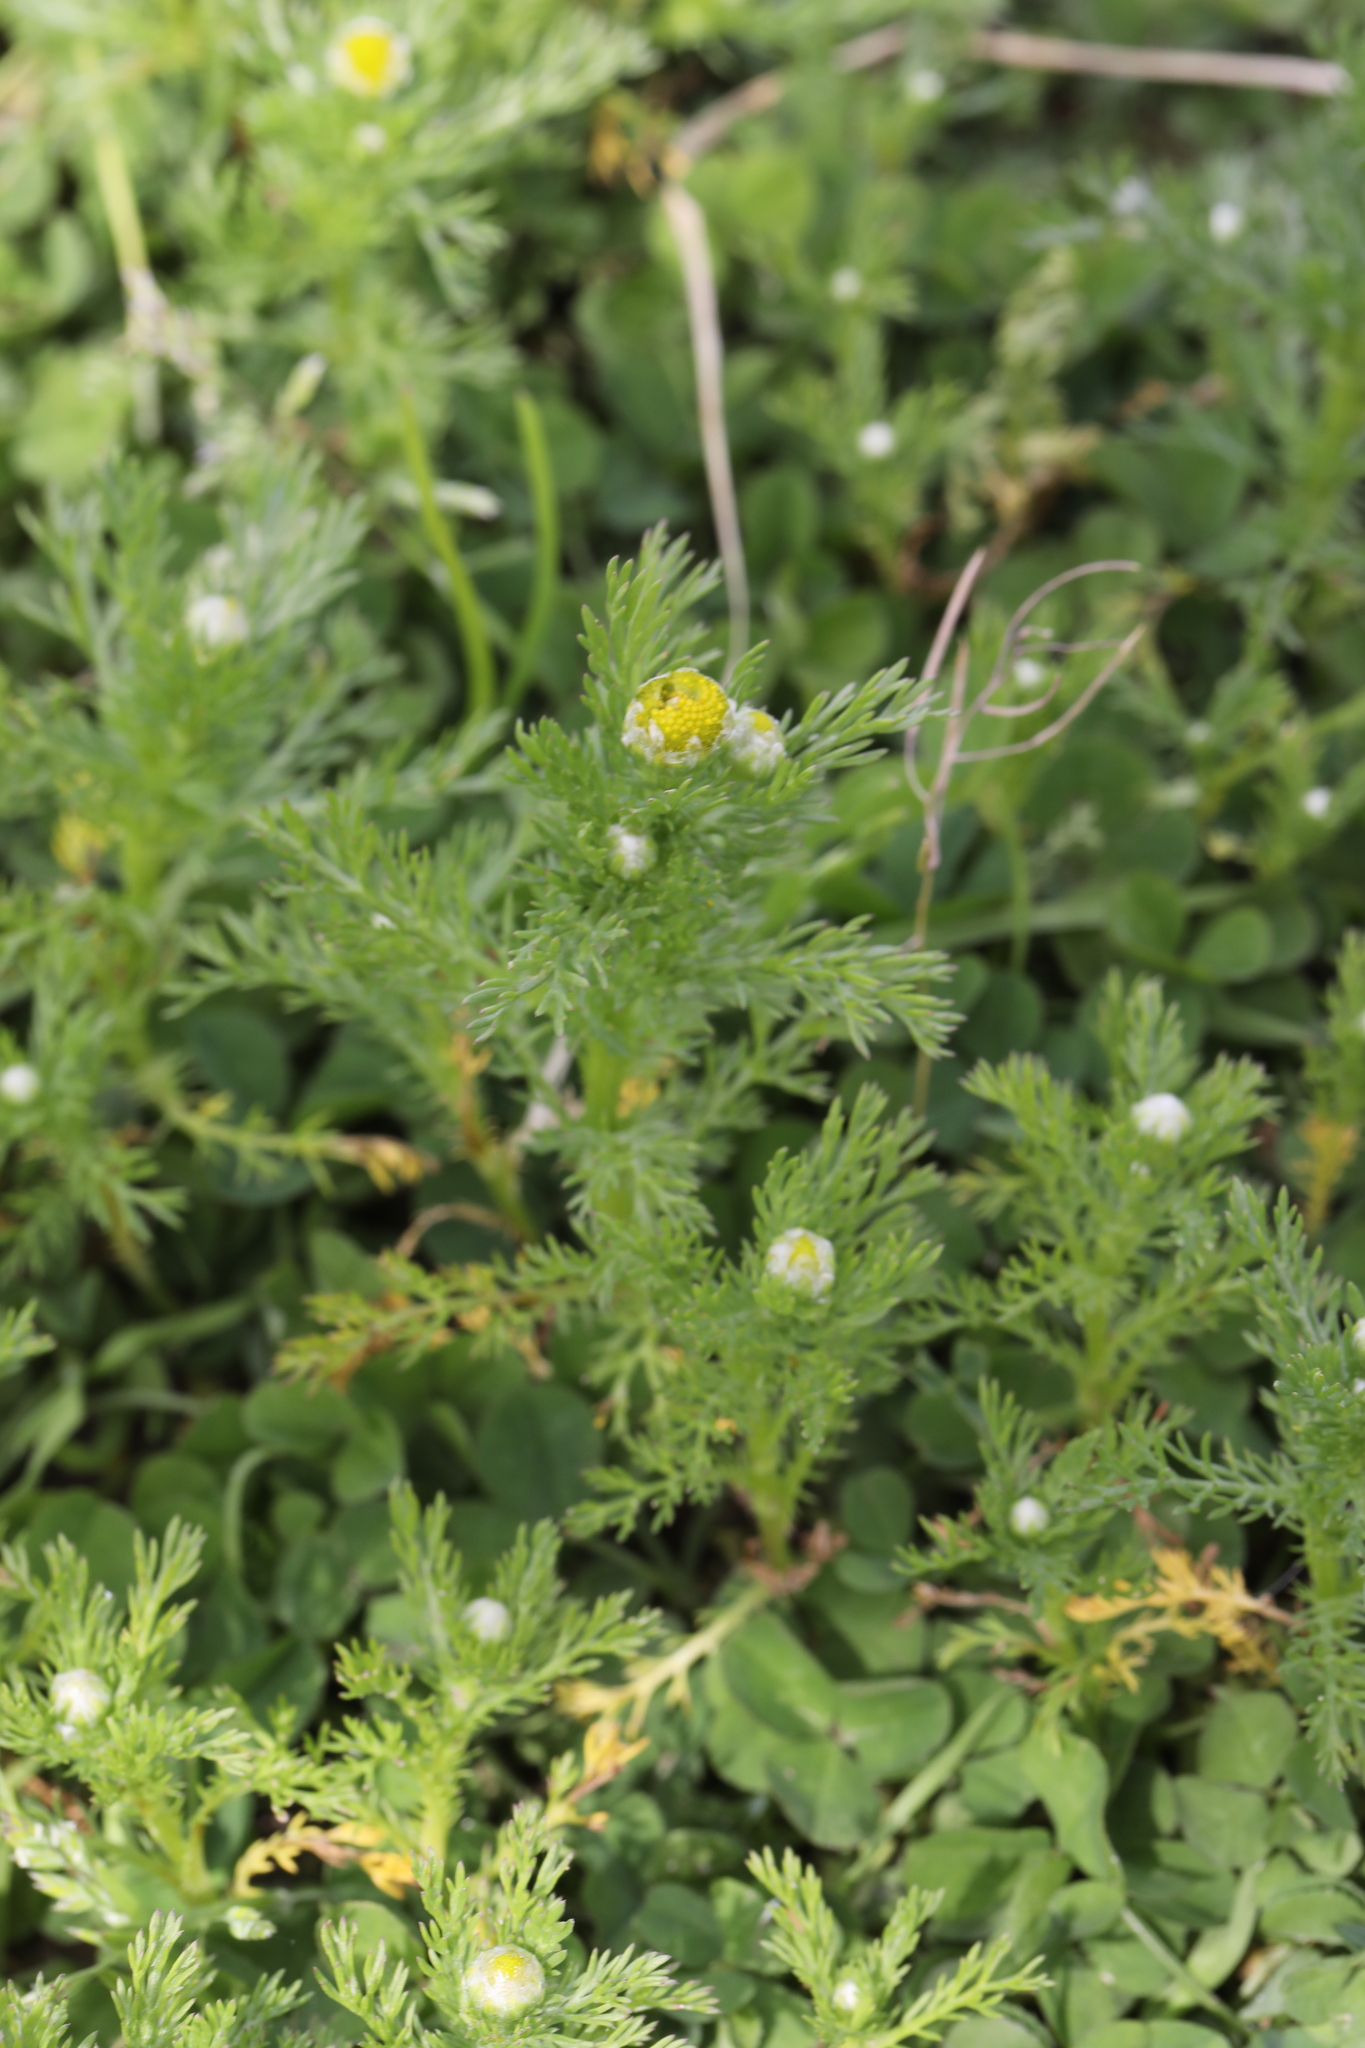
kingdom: Plantae
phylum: Tracheophyta
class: Magnoliopsida
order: Asterales
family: Asteraceae
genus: Matricaria
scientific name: Matricaria discoidea
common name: Disc mayweed
